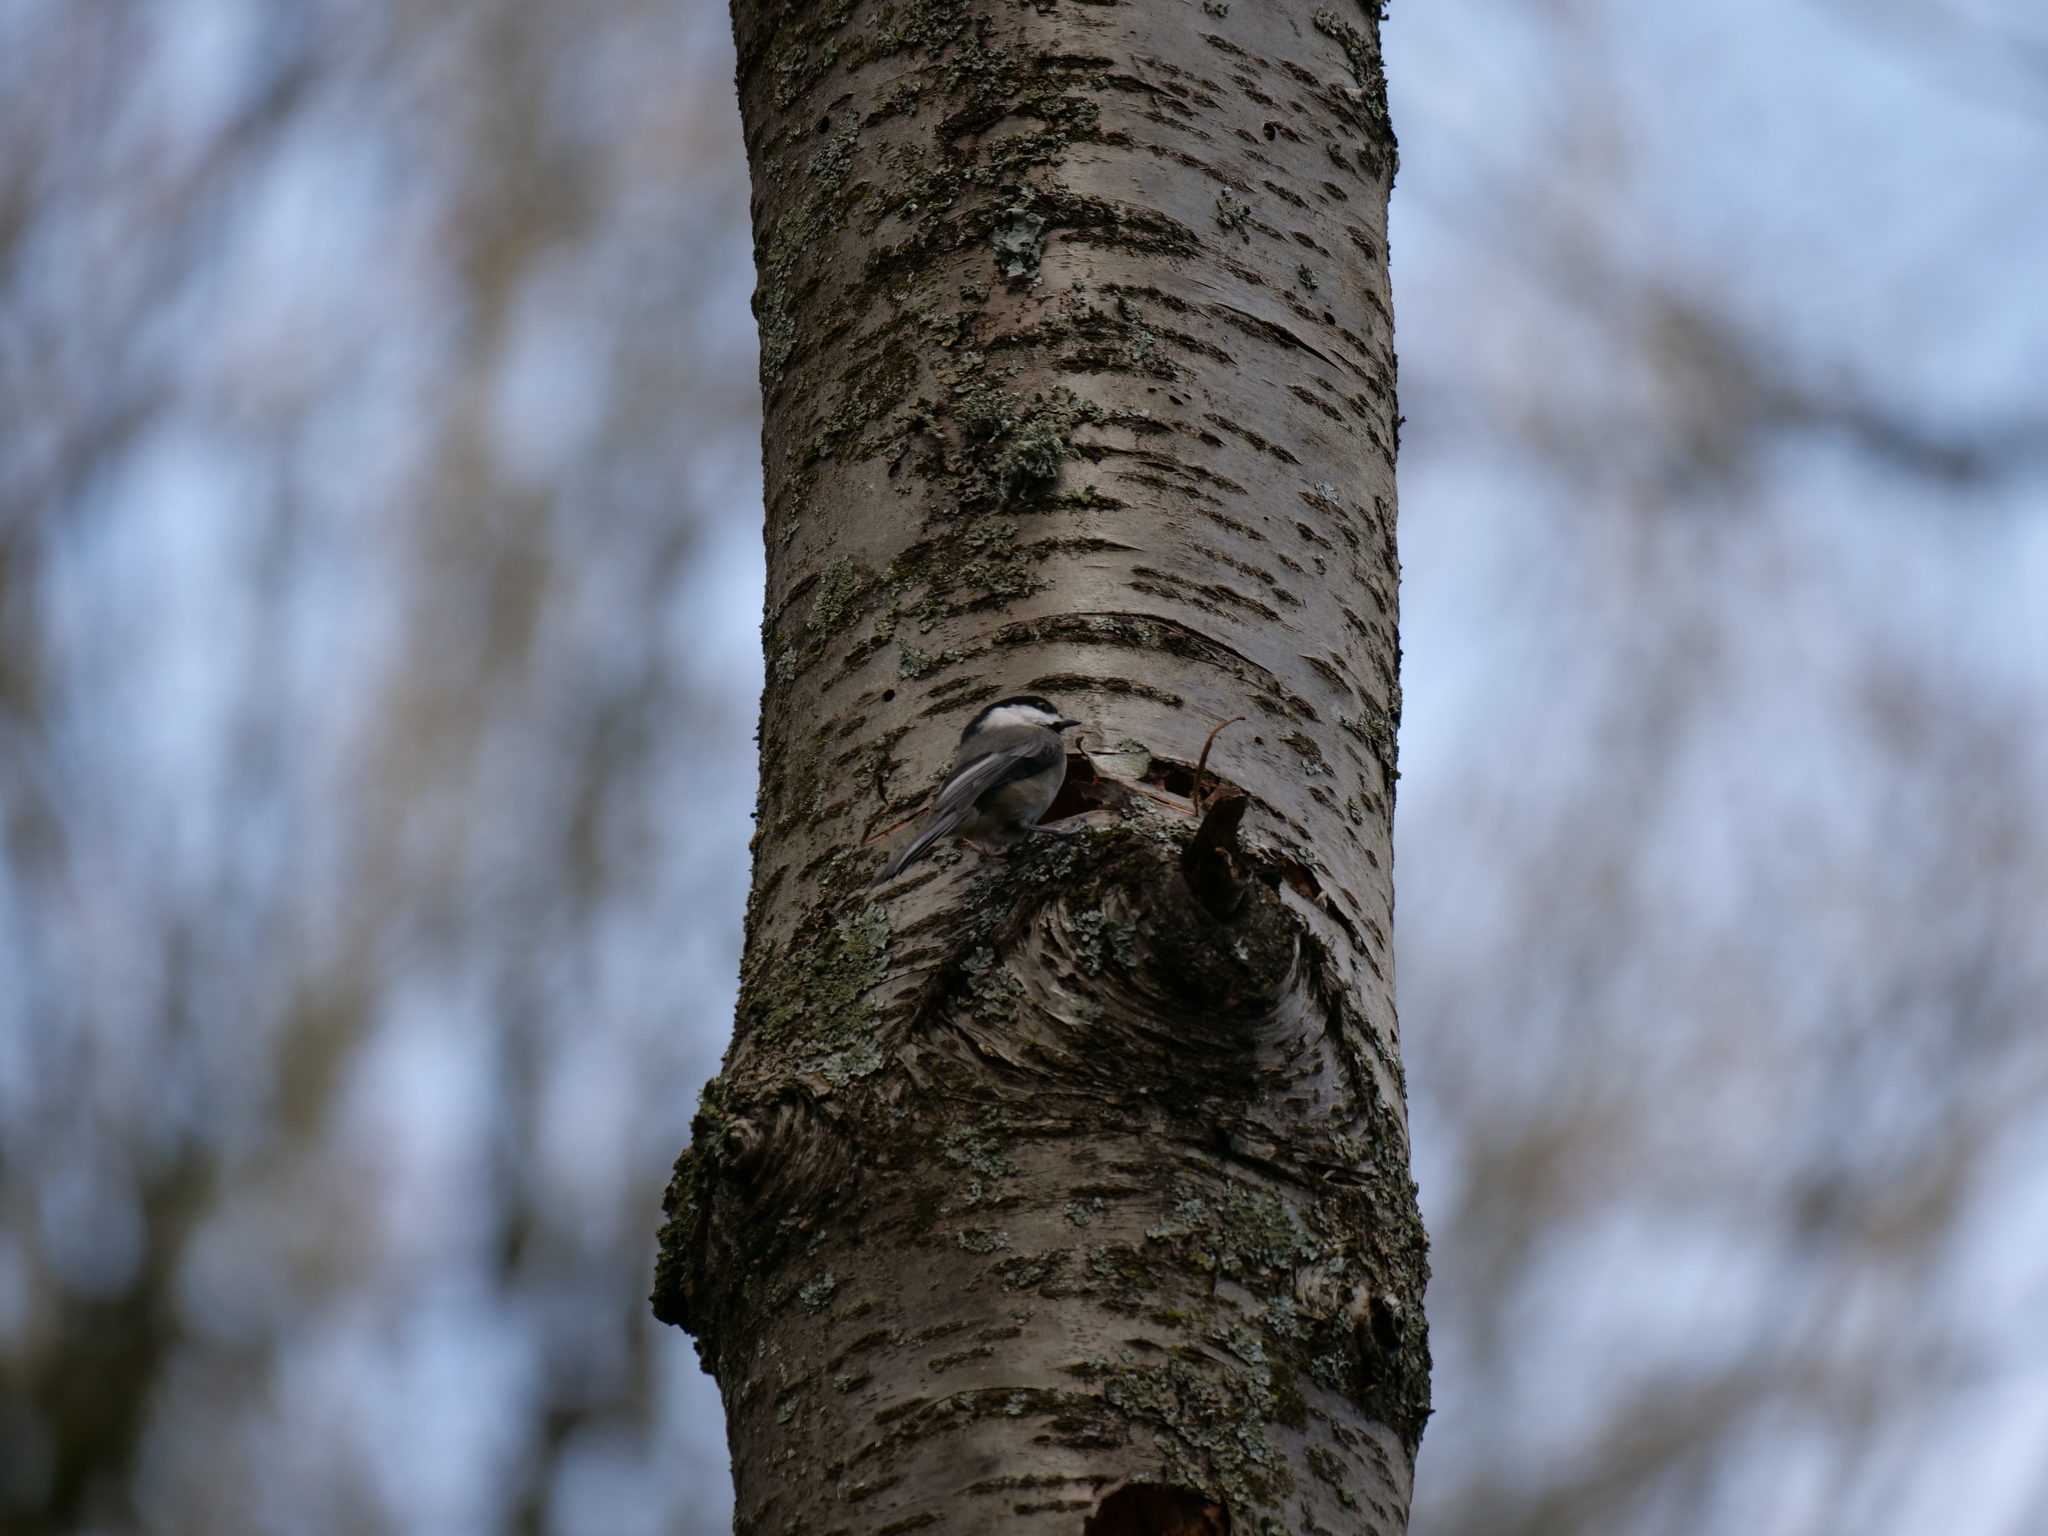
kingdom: Animalia
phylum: Chordata
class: Aves
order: Passeriformes
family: Paridae
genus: Poecile
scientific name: Poecile atricapillus
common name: Black-capped chickadee
